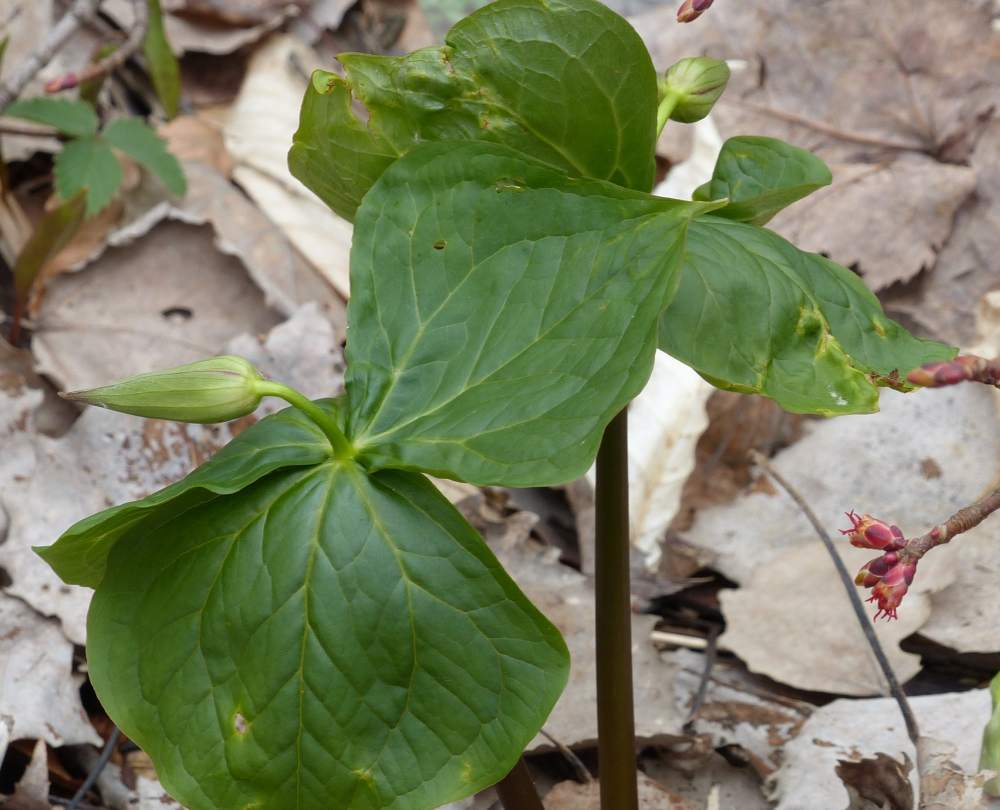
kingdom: Plantae
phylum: Tracheophyta
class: Liliopsida
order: Liliales
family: Melanthiaceae
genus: Trillium
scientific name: Trillium erectum
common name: Purple trillium
